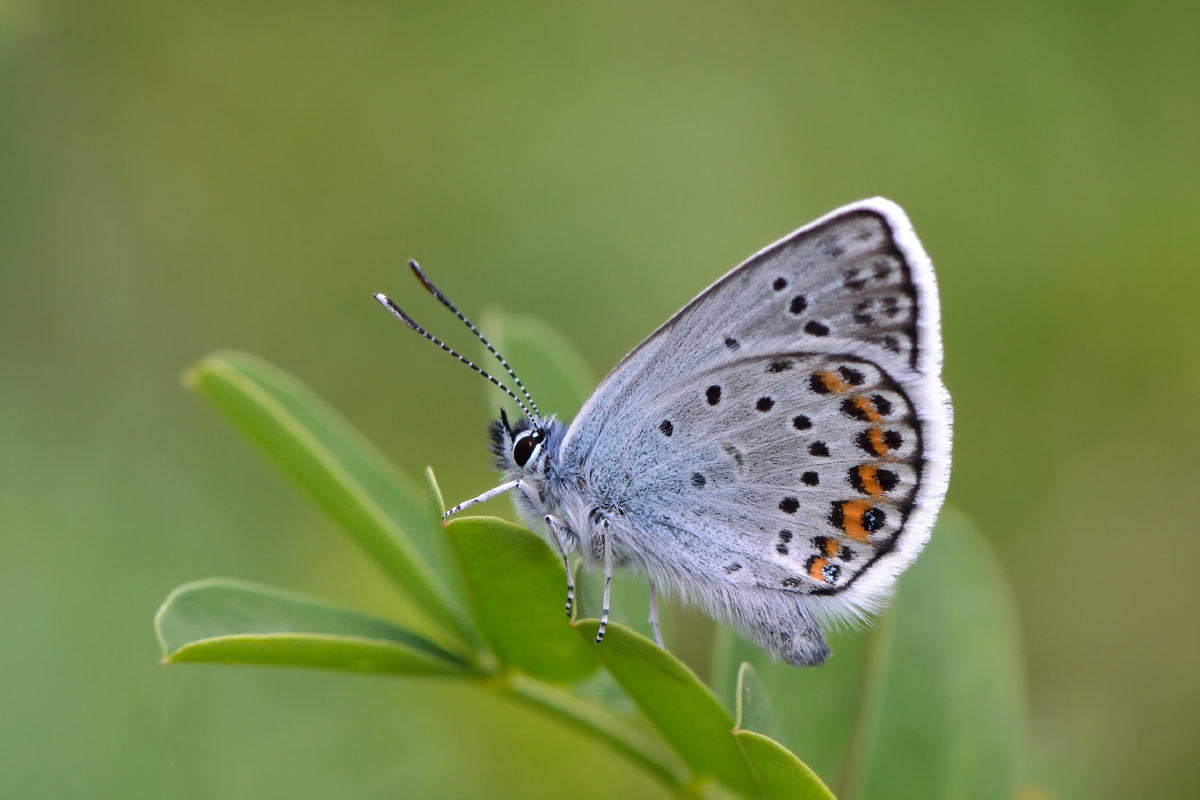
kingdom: Animalia
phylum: Arthropoda
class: Insecta
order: Lepidoptera
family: Lycaenidae
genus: Plebejus
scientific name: Plebejus argus
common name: Silver-studded blue
